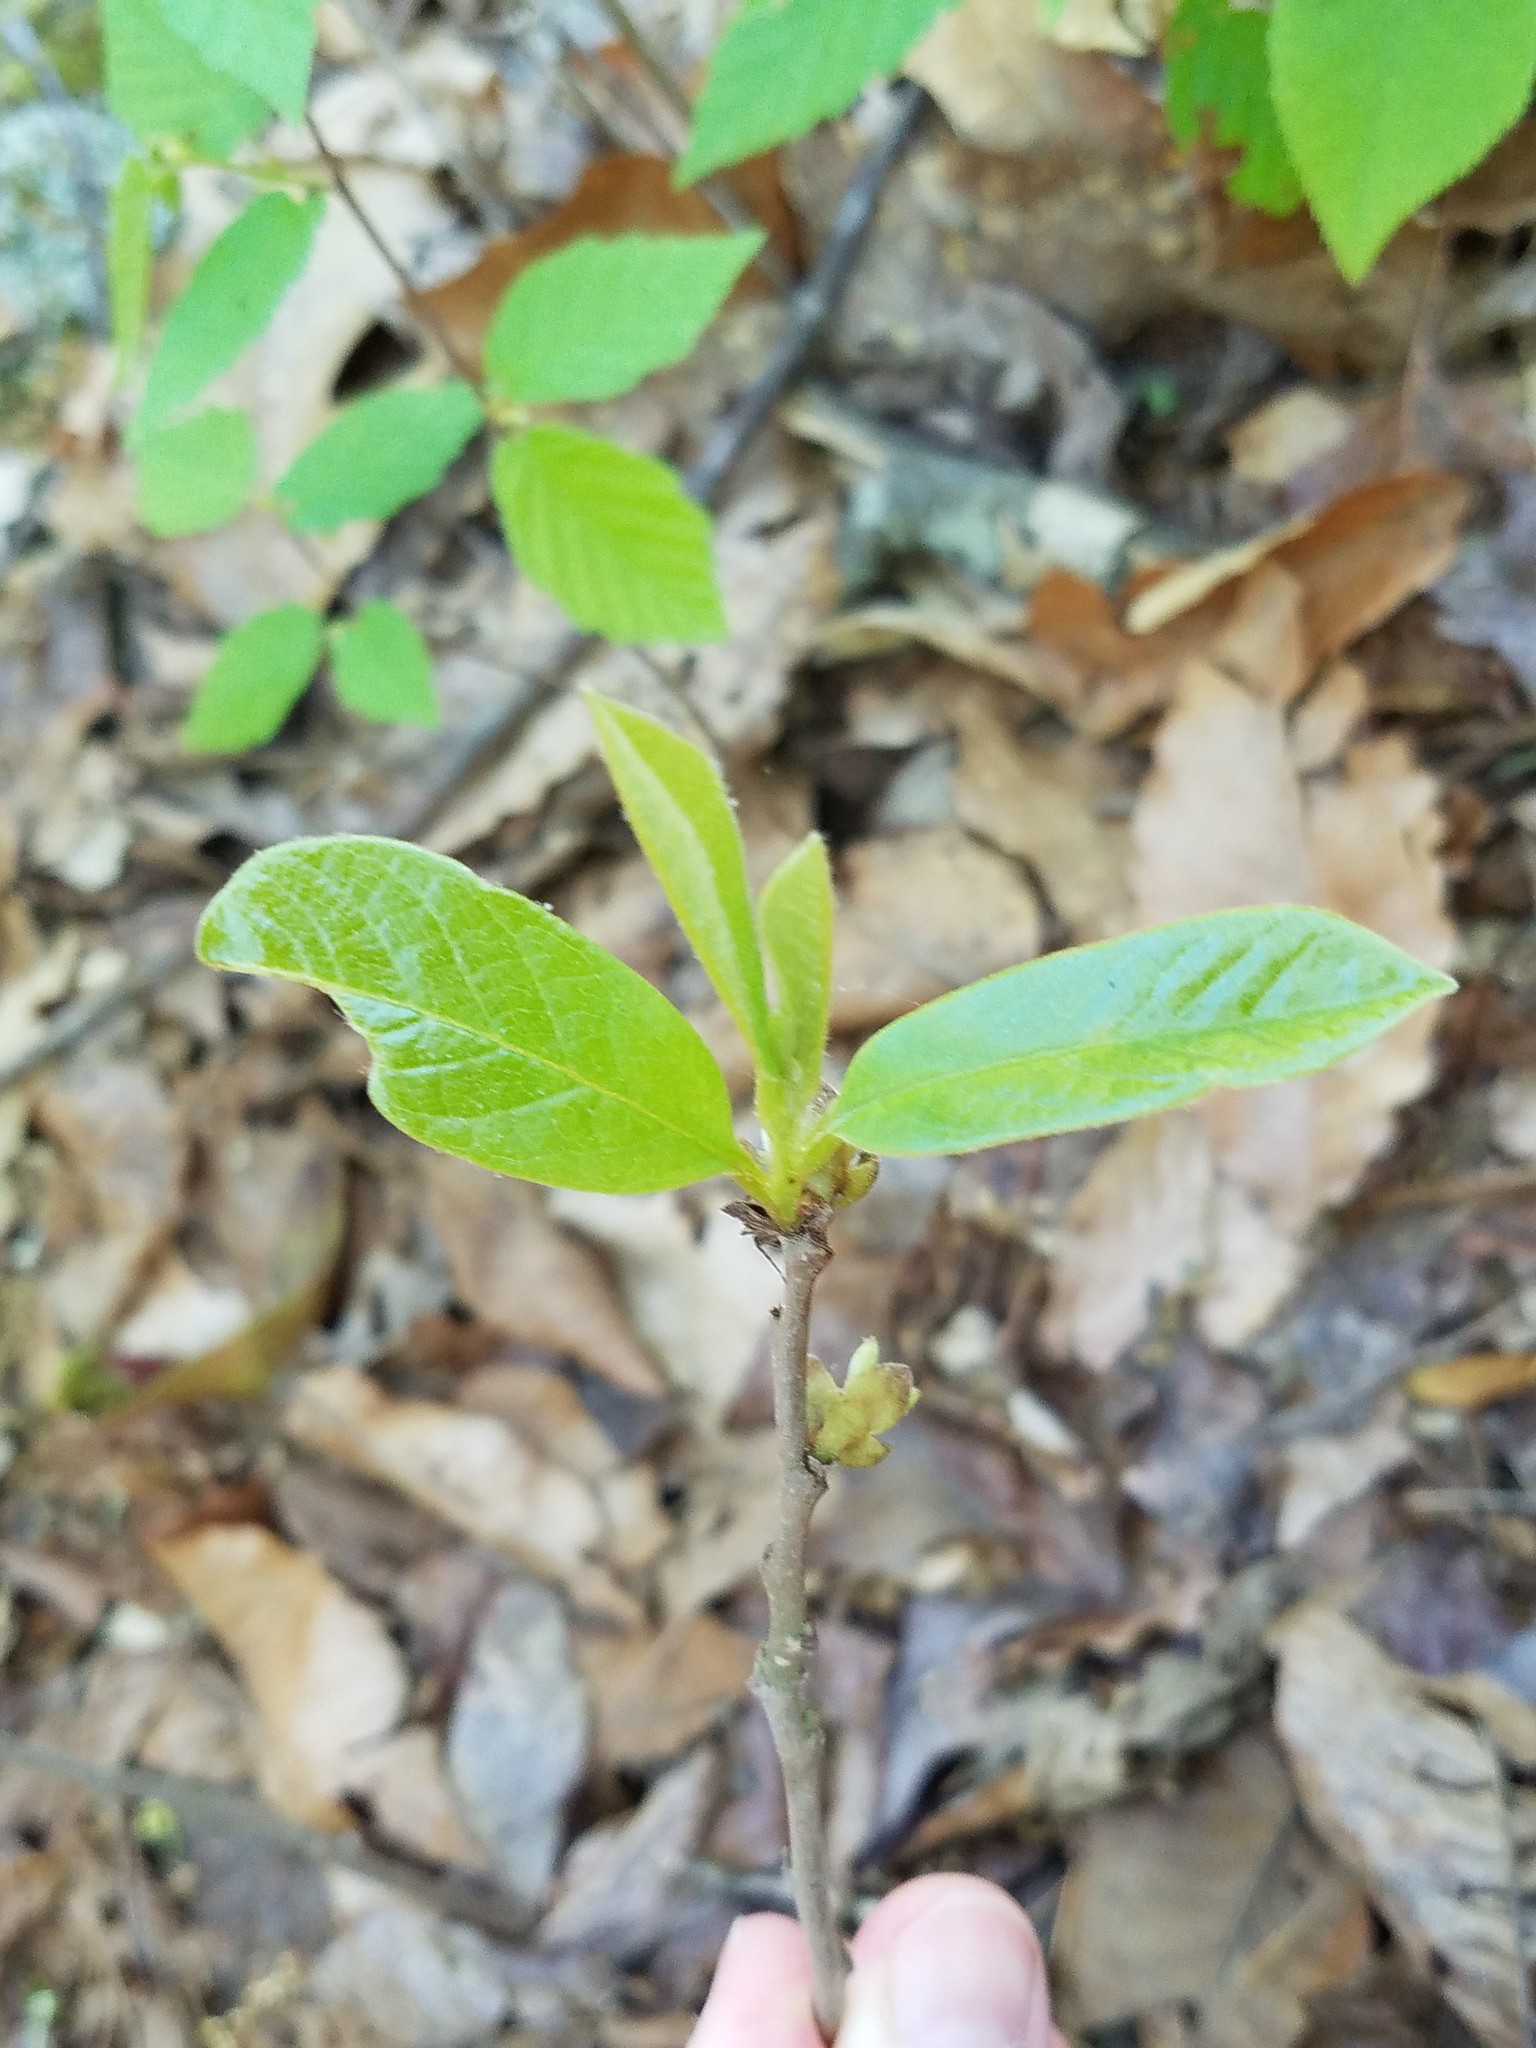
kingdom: Plantae
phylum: Tracheophyta
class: Magnoliopsida
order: Magnoliales
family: Annonaceae
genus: Asimina
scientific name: Asimina parviflora
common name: Dwarf pawpaw
